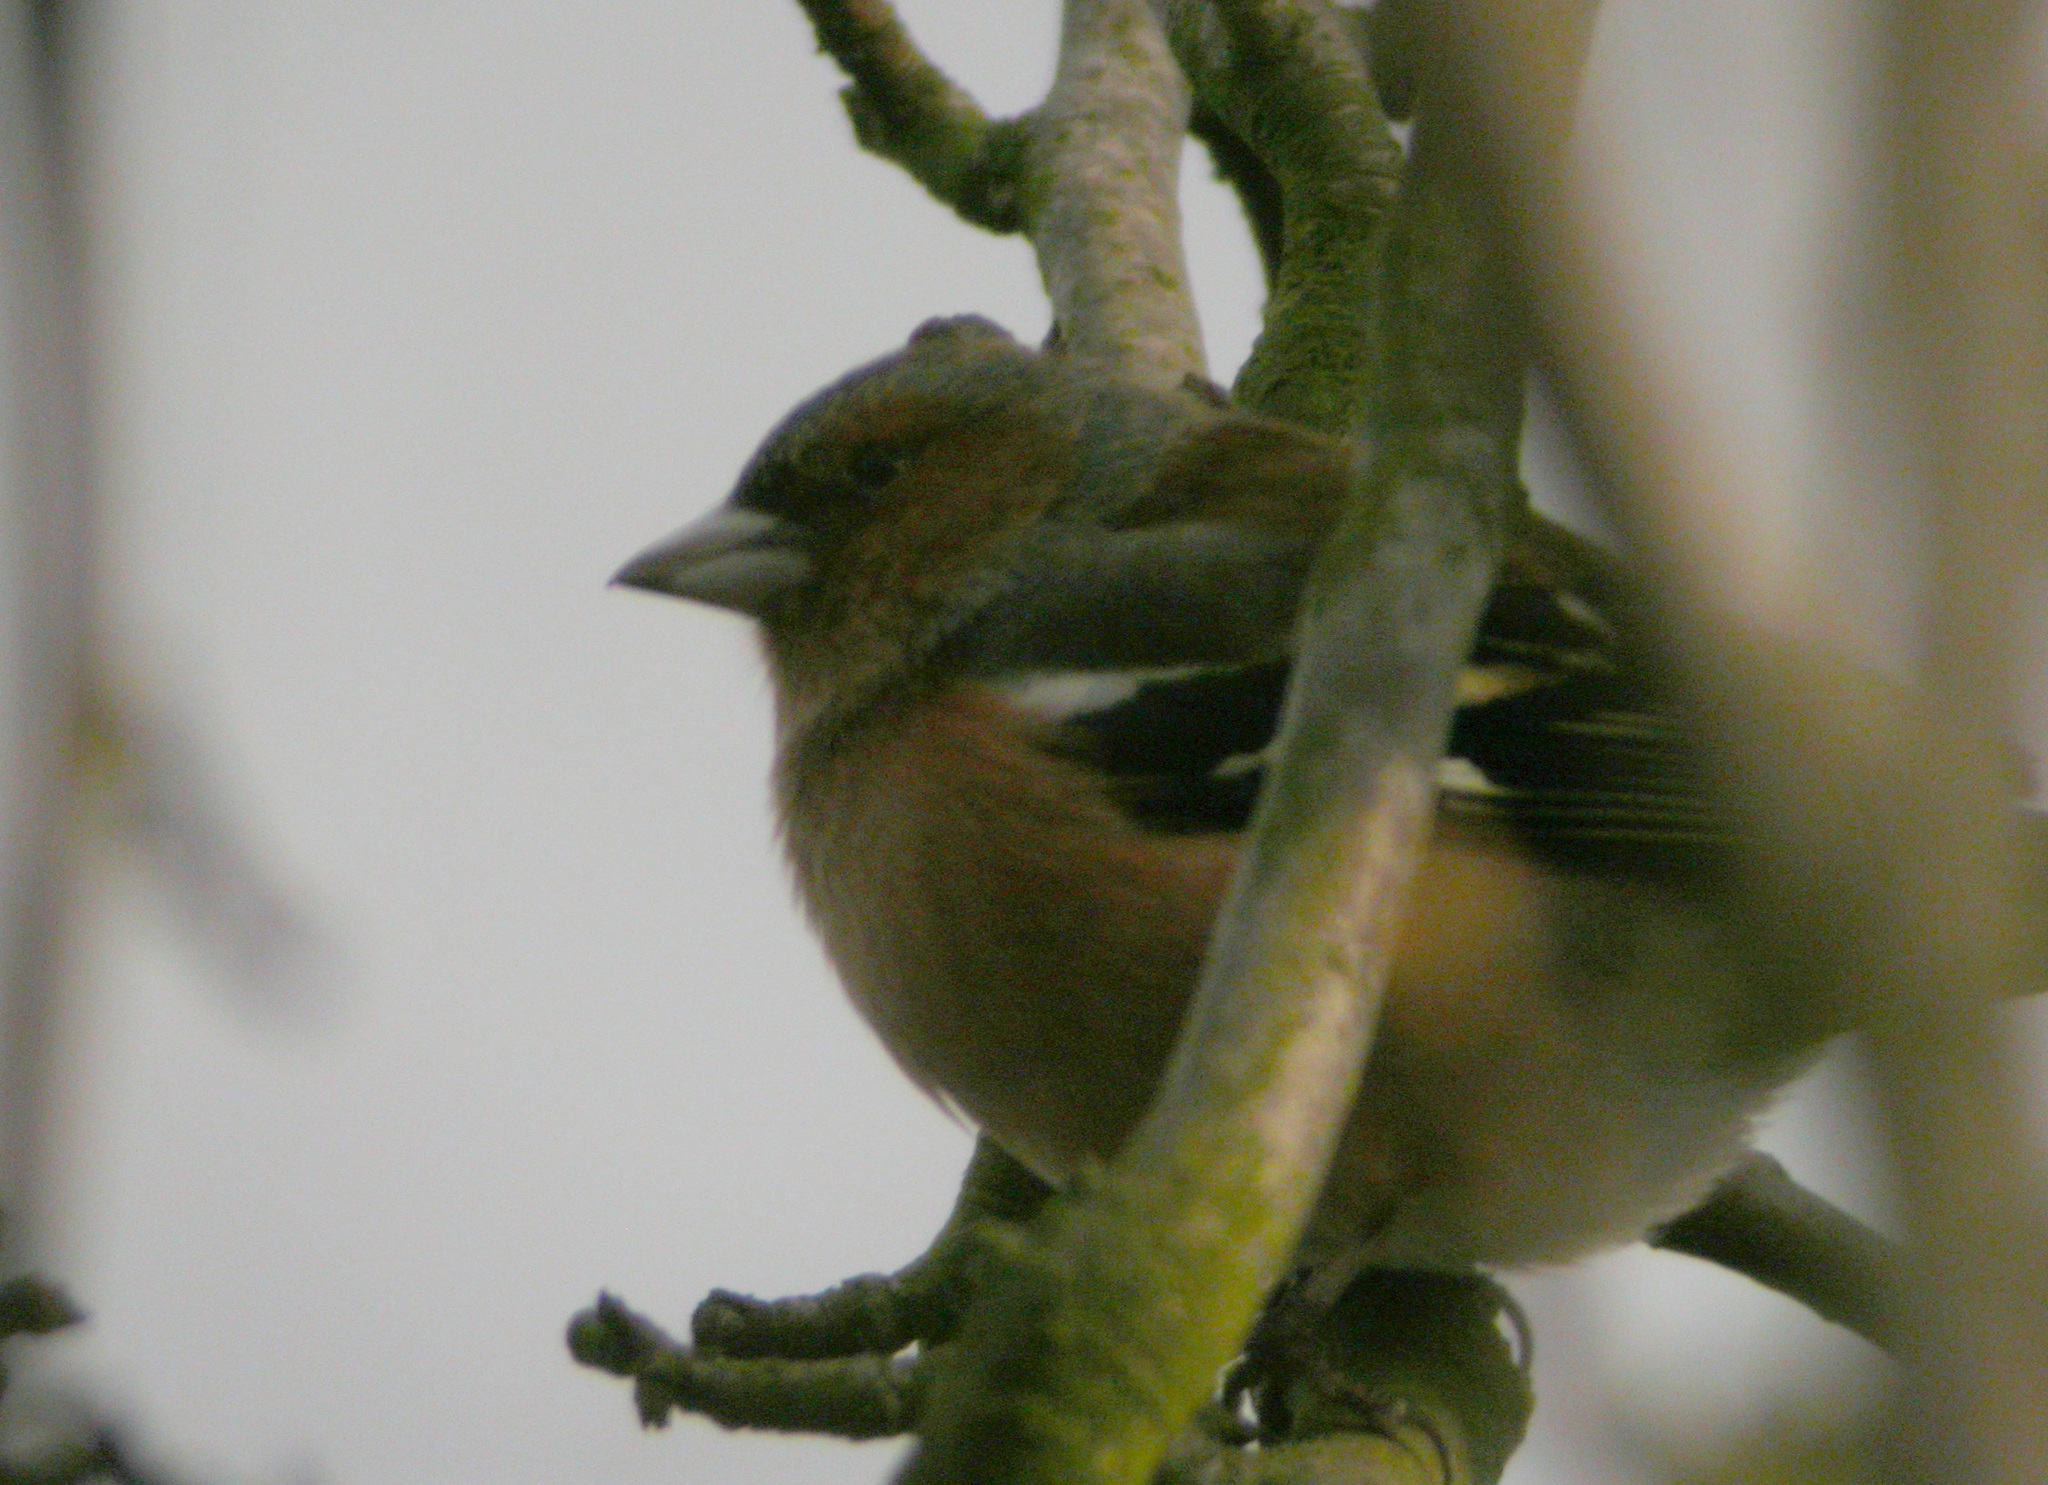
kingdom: Animalia
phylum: Chordata
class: Aves
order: Passeriformes
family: Fringillidae
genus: Fringilla
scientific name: Fringilla coelebs
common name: Common chaffinch
